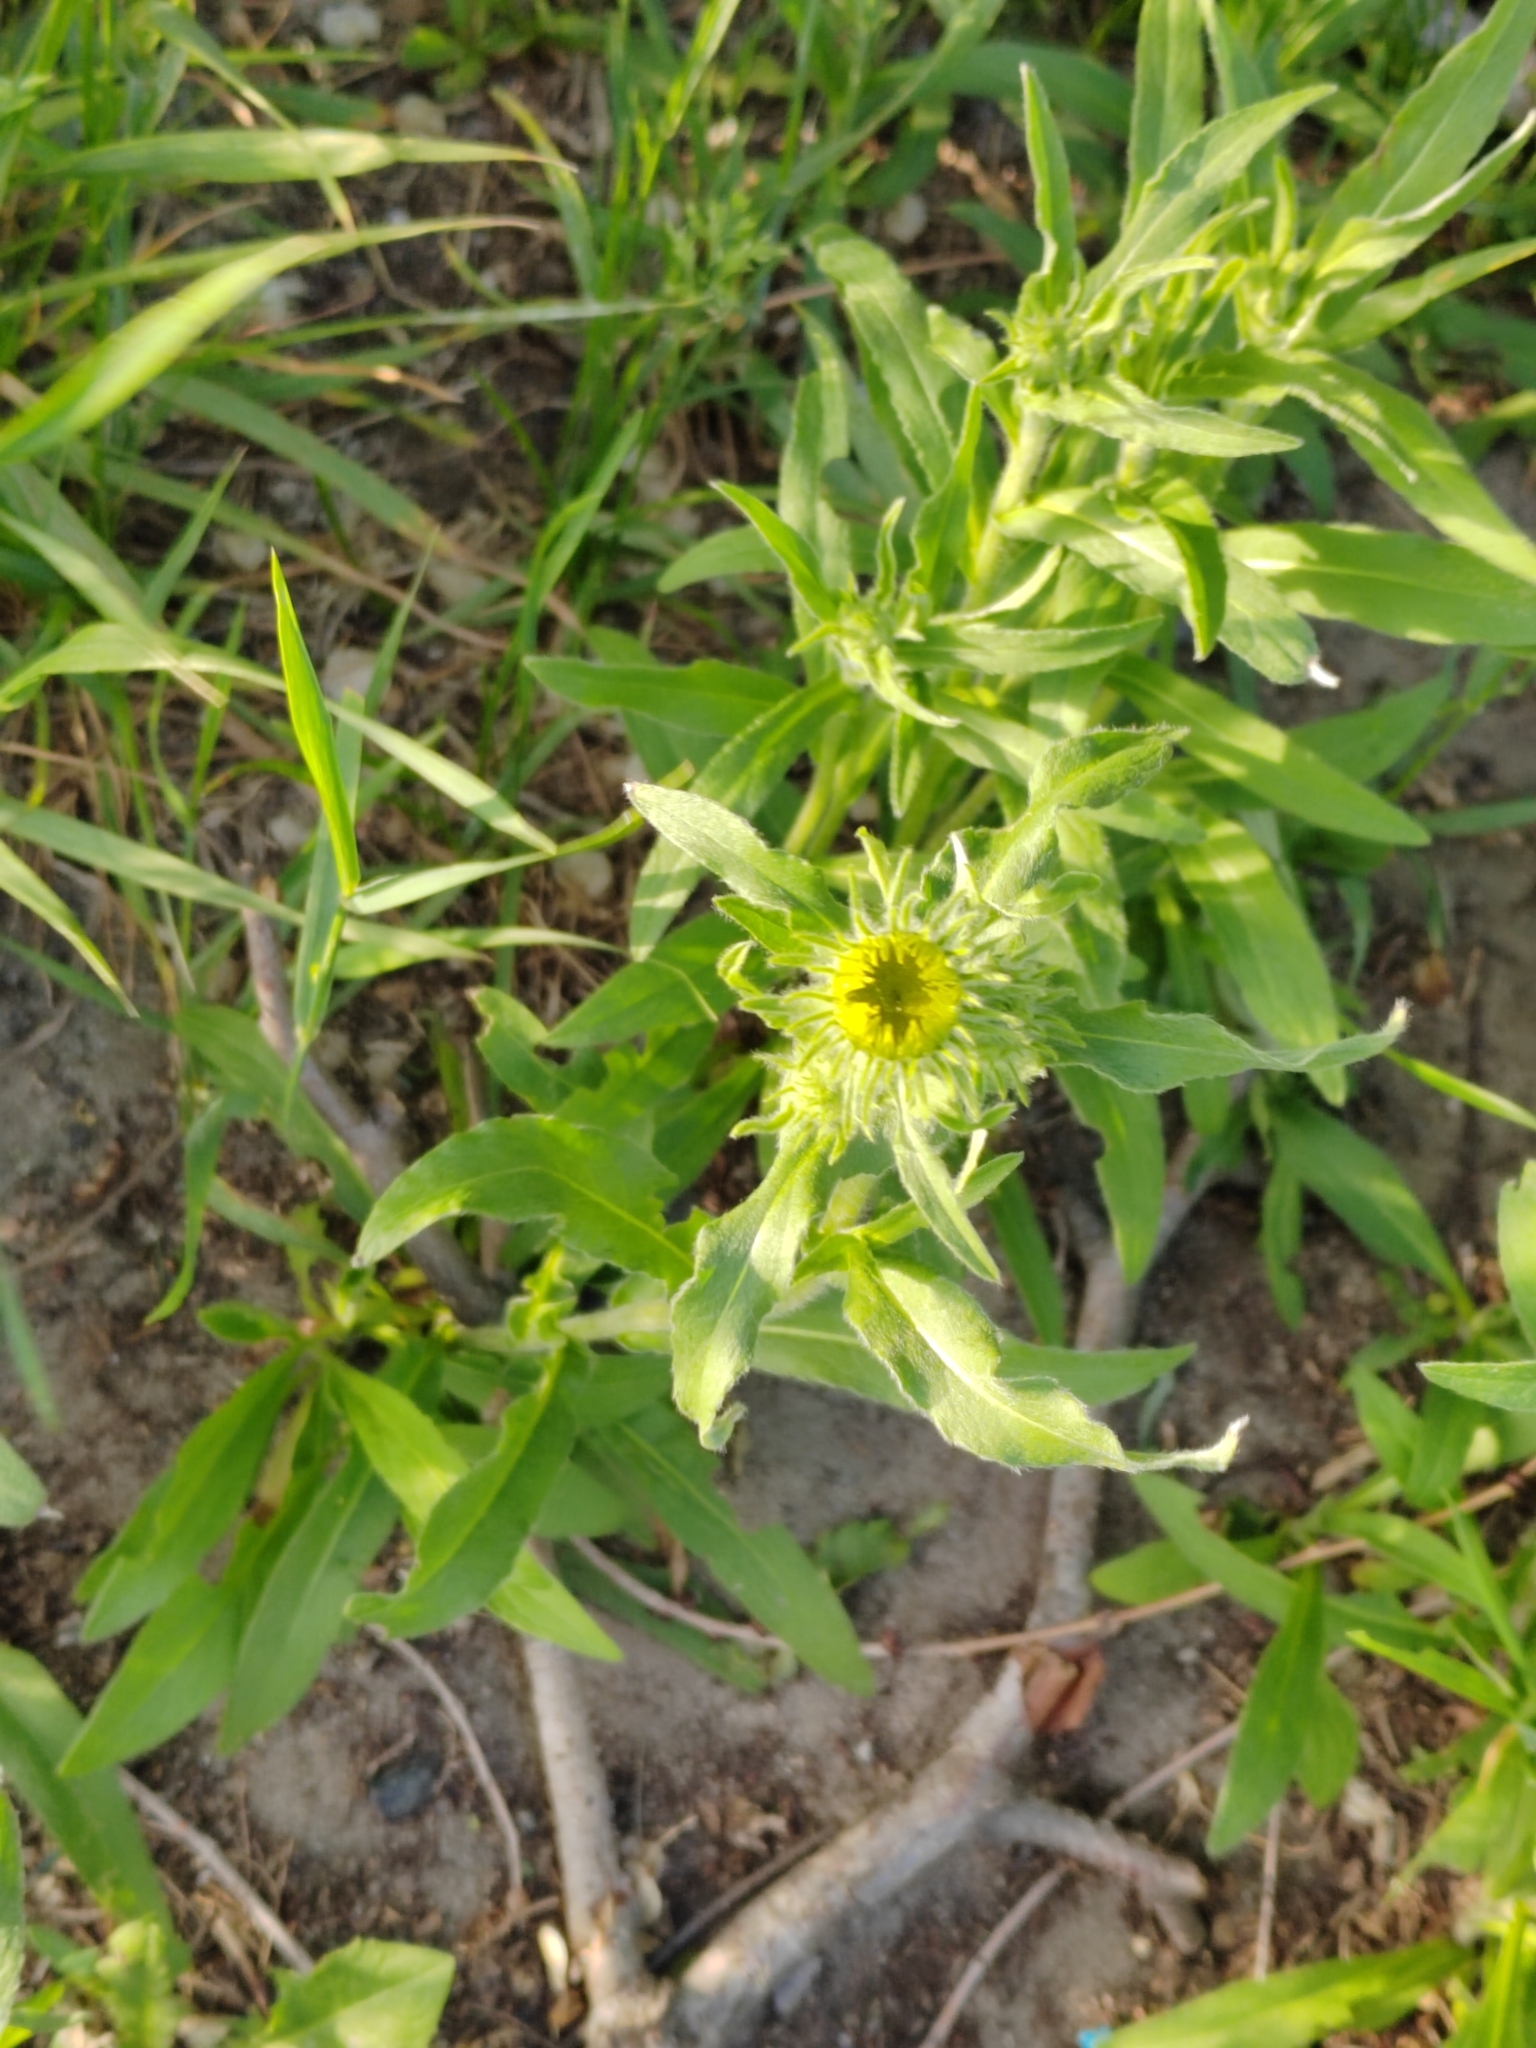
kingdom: Plantae
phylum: Tracheophyta
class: Magnoliopsida
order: Asterales
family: Asteraceae
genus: Pentanema
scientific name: Pentanema britannicum
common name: British elecampane
